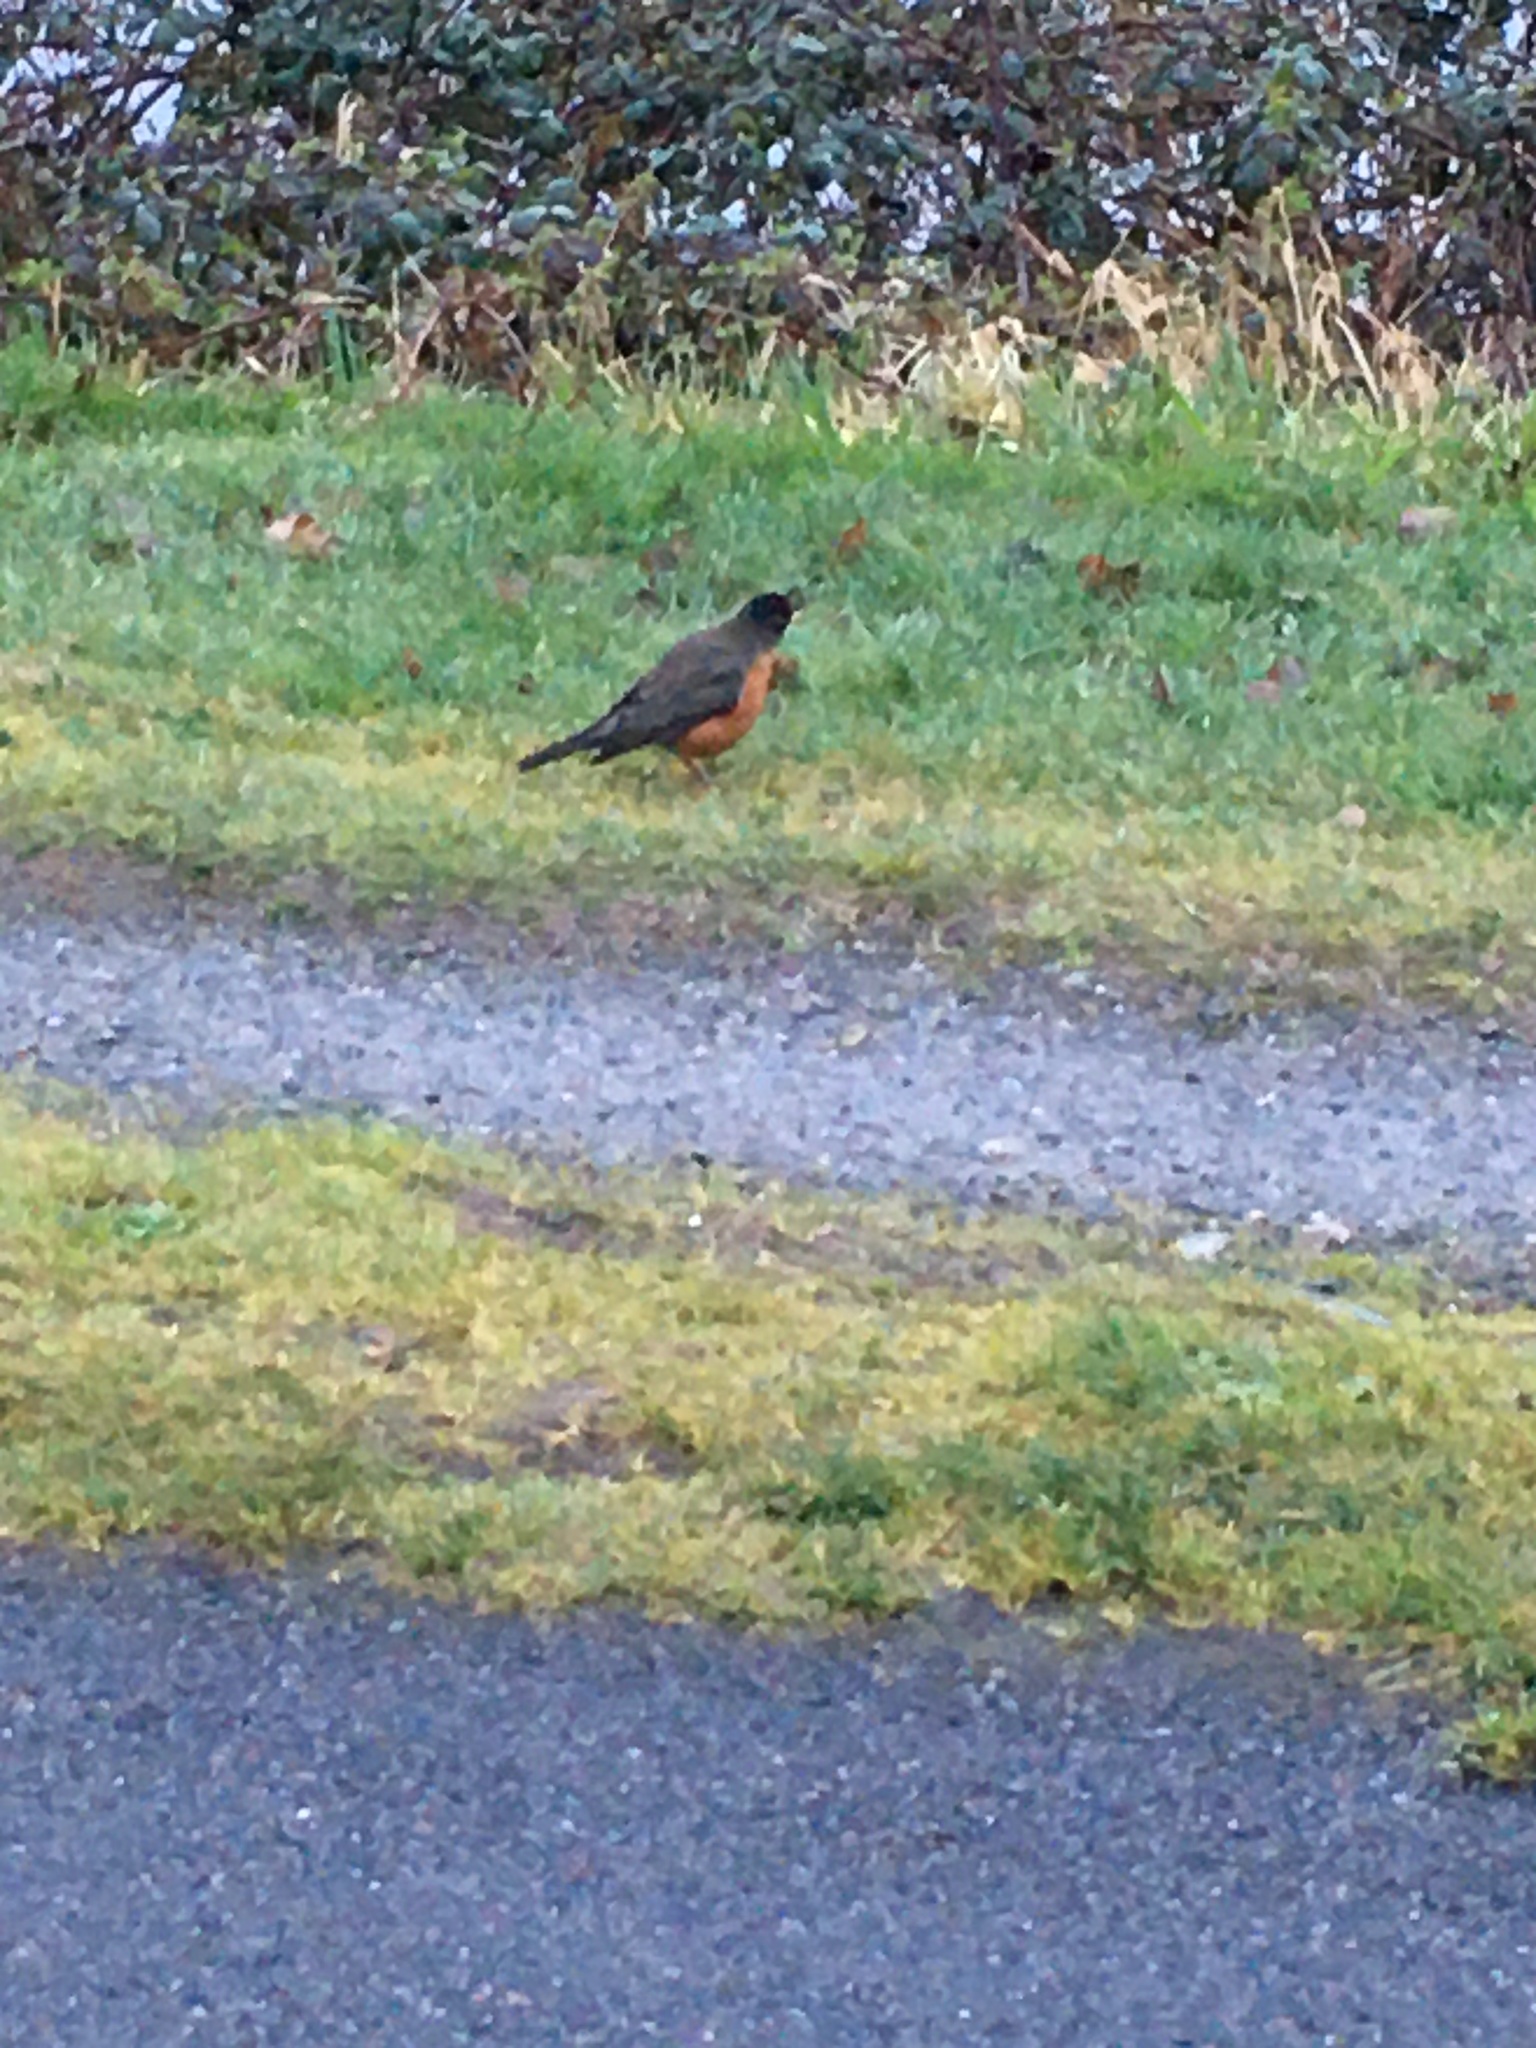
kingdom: Animalia
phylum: Chordata
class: Aves
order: Passeriformes
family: Turdidae
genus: Turdus
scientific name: Turdus migratorius
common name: American robin
